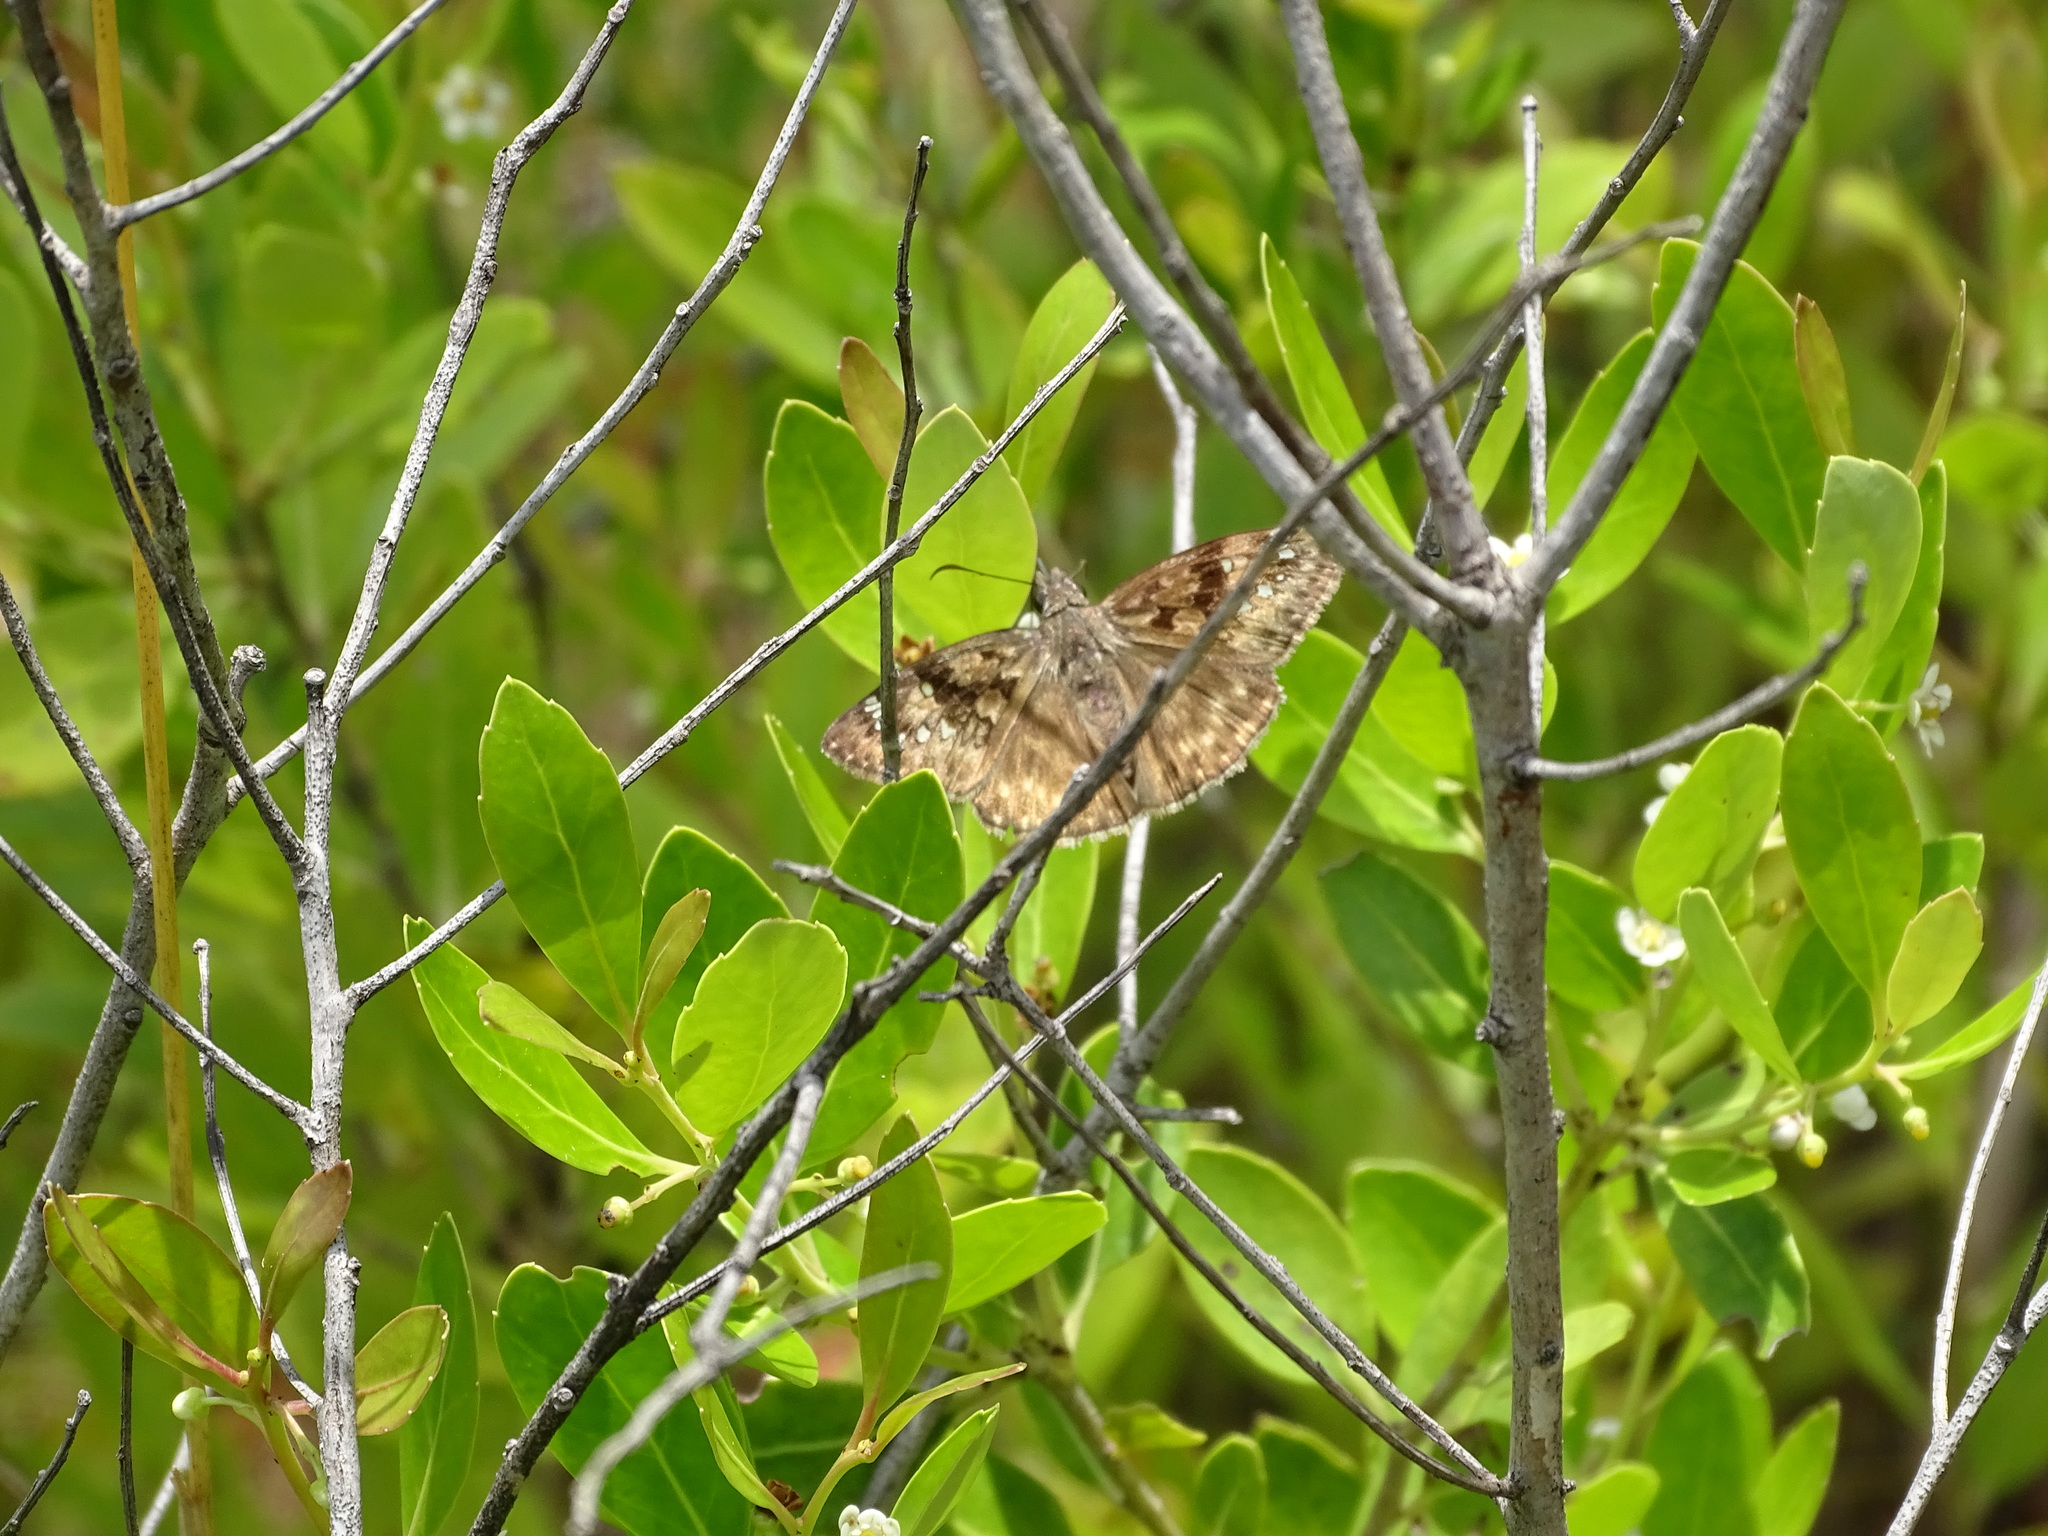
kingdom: Animalia
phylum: Arthropoda
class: Insecta
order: Lepidoptera
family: Hesperiidae
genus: Erynnis
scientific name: Erynnis horatius
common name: Horace's duskywing
